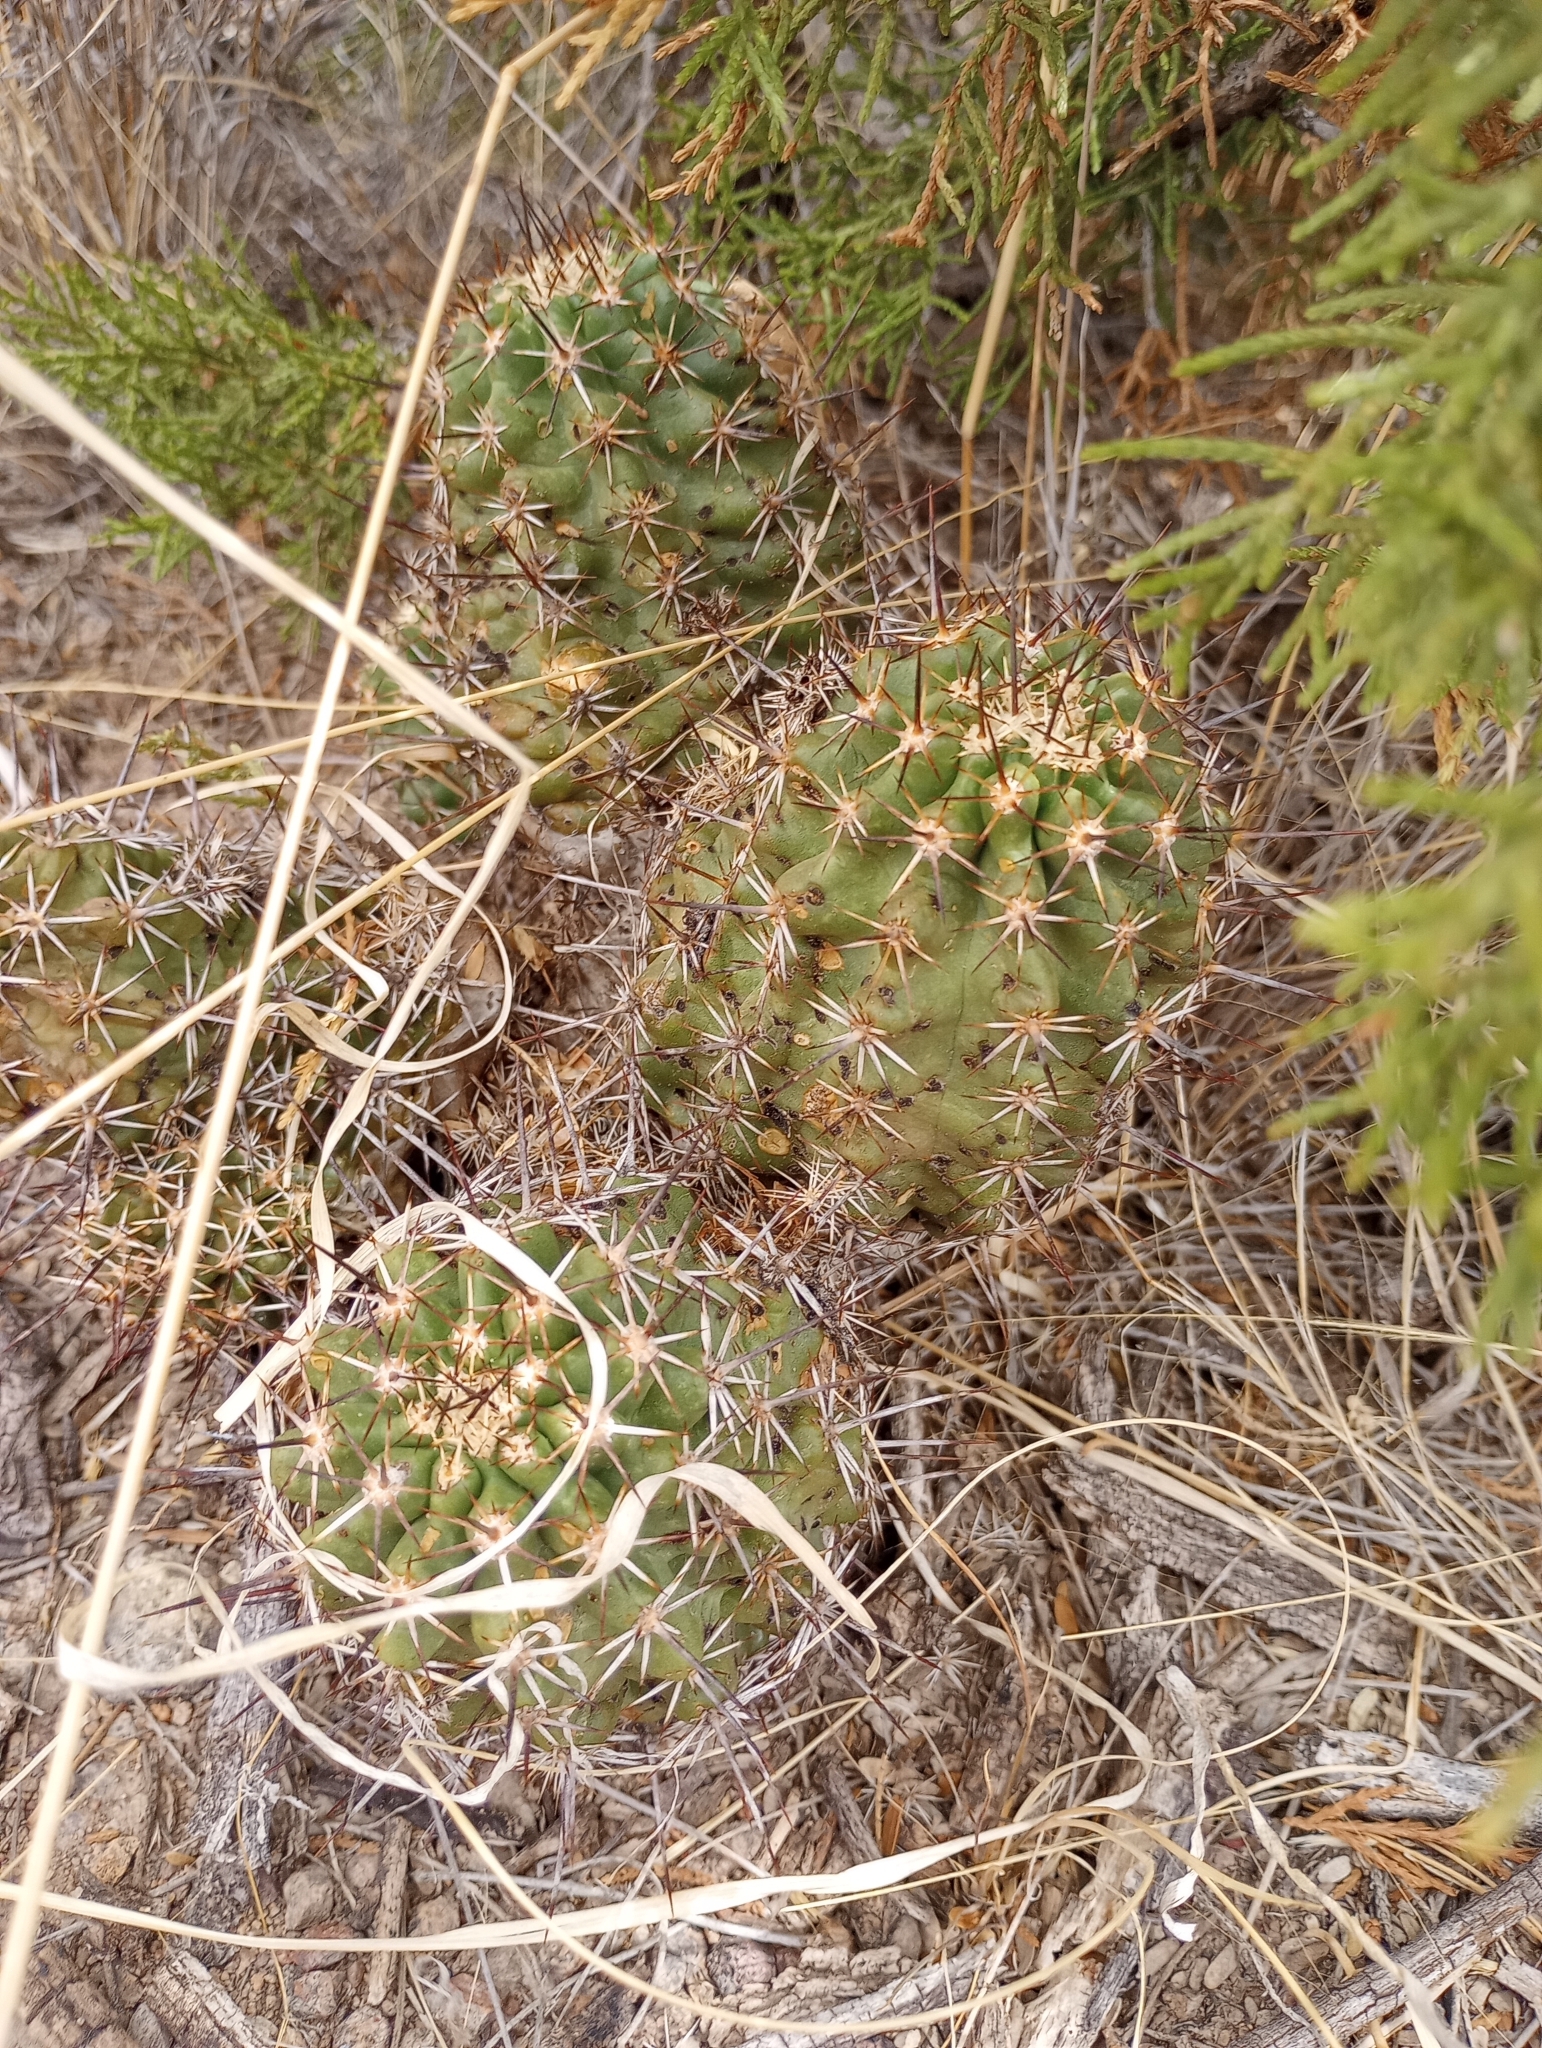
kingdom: Plantae
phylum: Tracheophyta
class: Magnoliopsida
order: Caryophyllales
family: Cactaceae
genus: Echinocereus
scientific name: Echinocereus fendleri
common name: Fendler's hedgehog cactus
